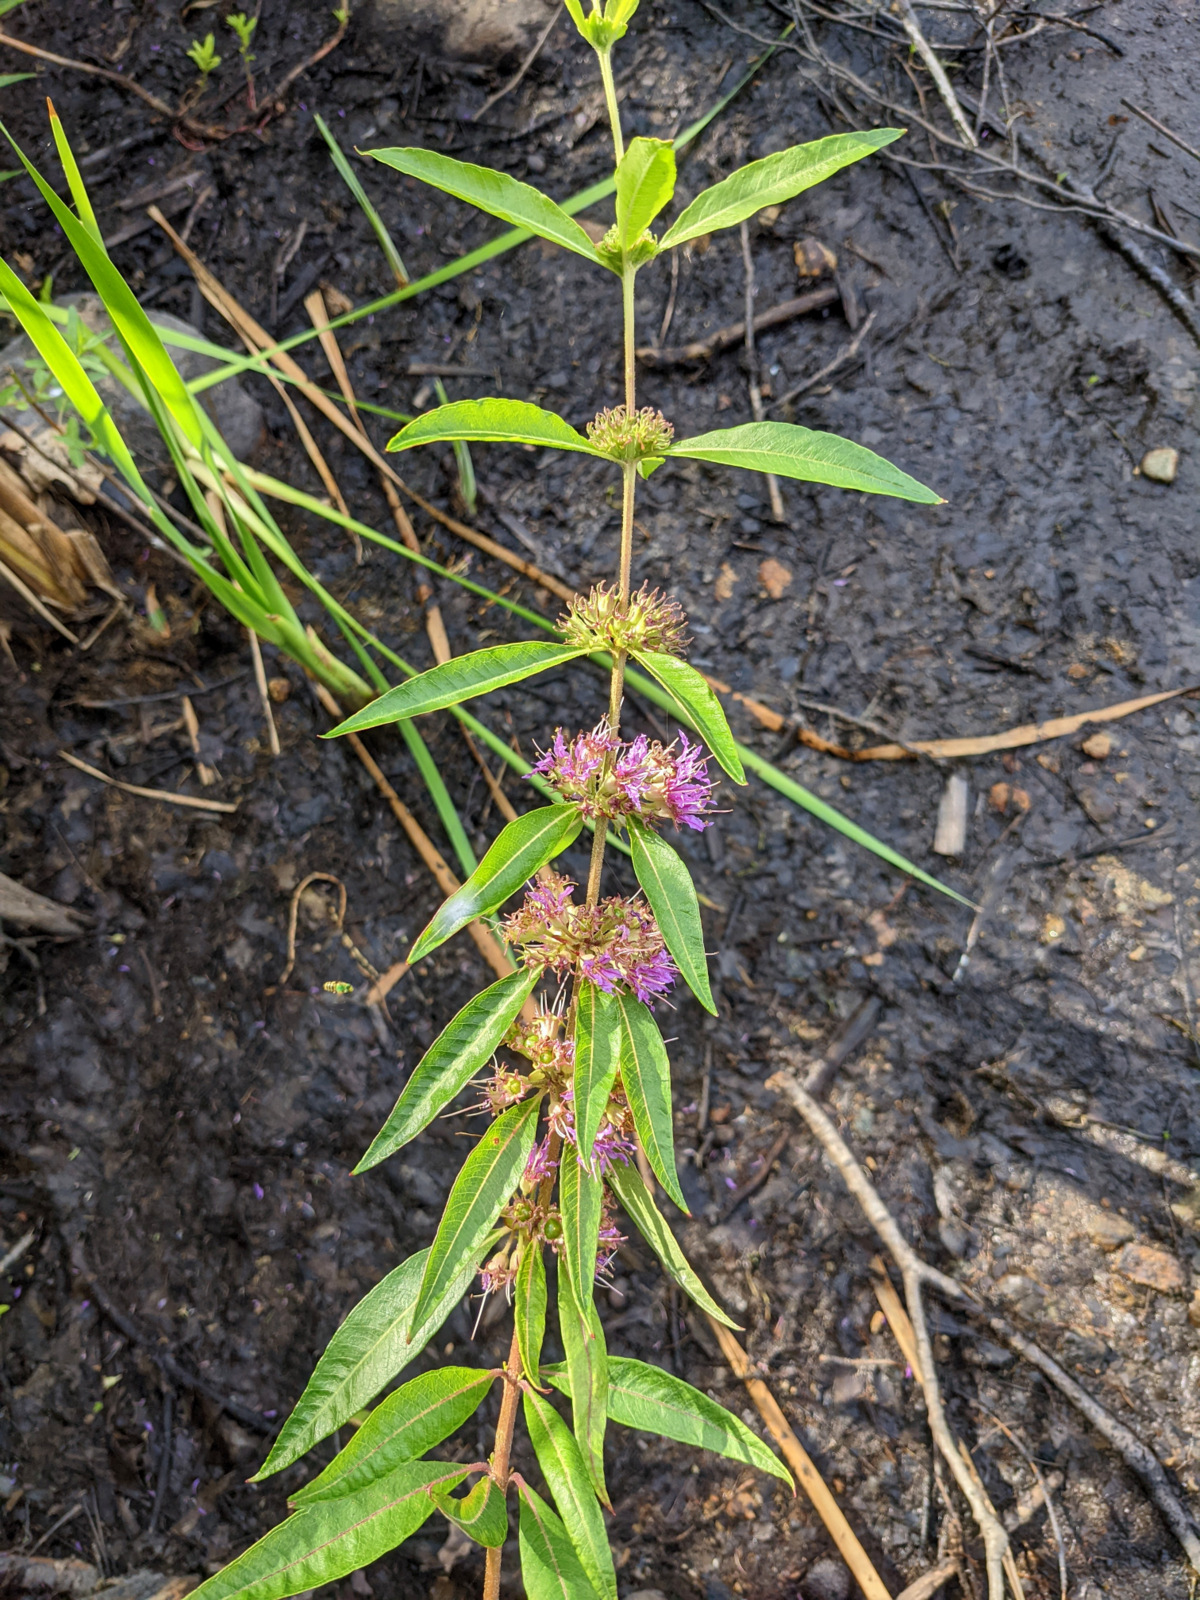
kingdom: Plantae
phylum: Tracheophyta
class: Magnoliopsida
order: Myrtales
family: Lythraceae
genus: Decodon
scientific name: Decodon verticillatus
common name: Hairy swamp loosestrife
